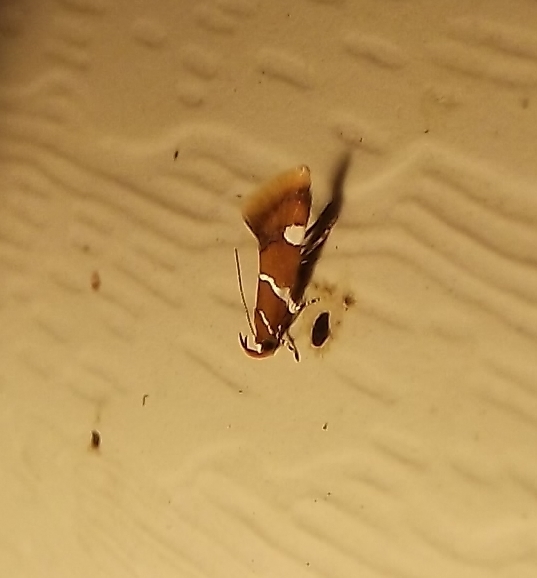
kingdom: Animalia
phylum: Arthropoda
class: Insecta
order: Lepidoptera
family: Oecophoridae
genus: Promalactis
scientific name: Promalactis suzukiella
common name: Moth
